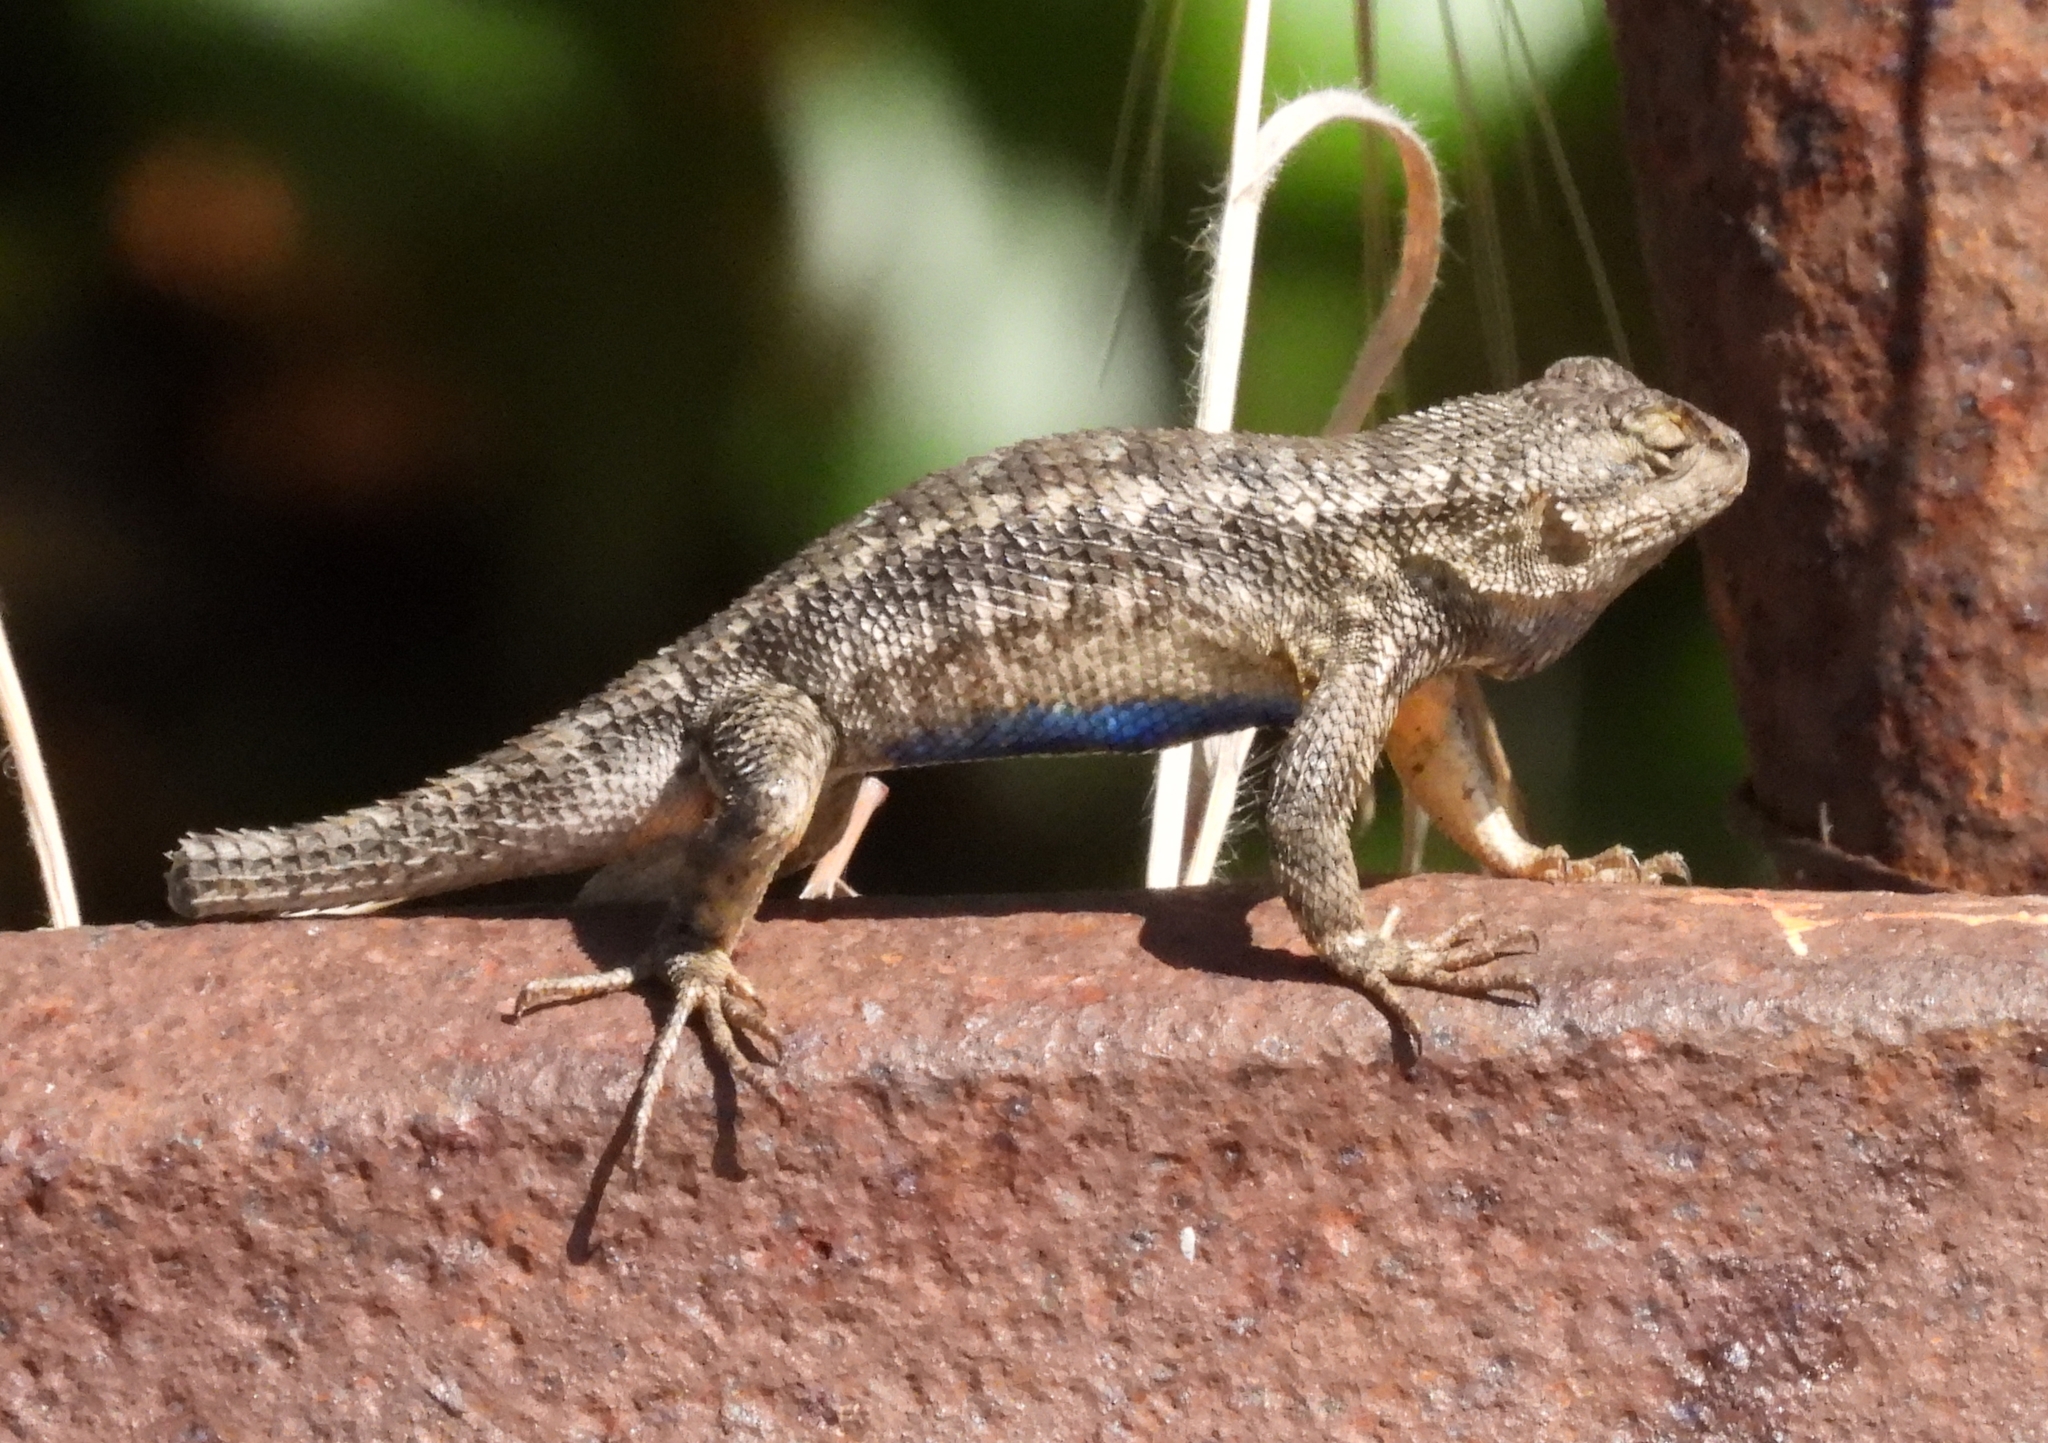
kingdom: Animalia
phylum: Chordata
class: Squamata
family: Phrynosomatidae
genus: Sceloporus
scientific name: Sceloporus occidentalis
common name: Western fence lizard
